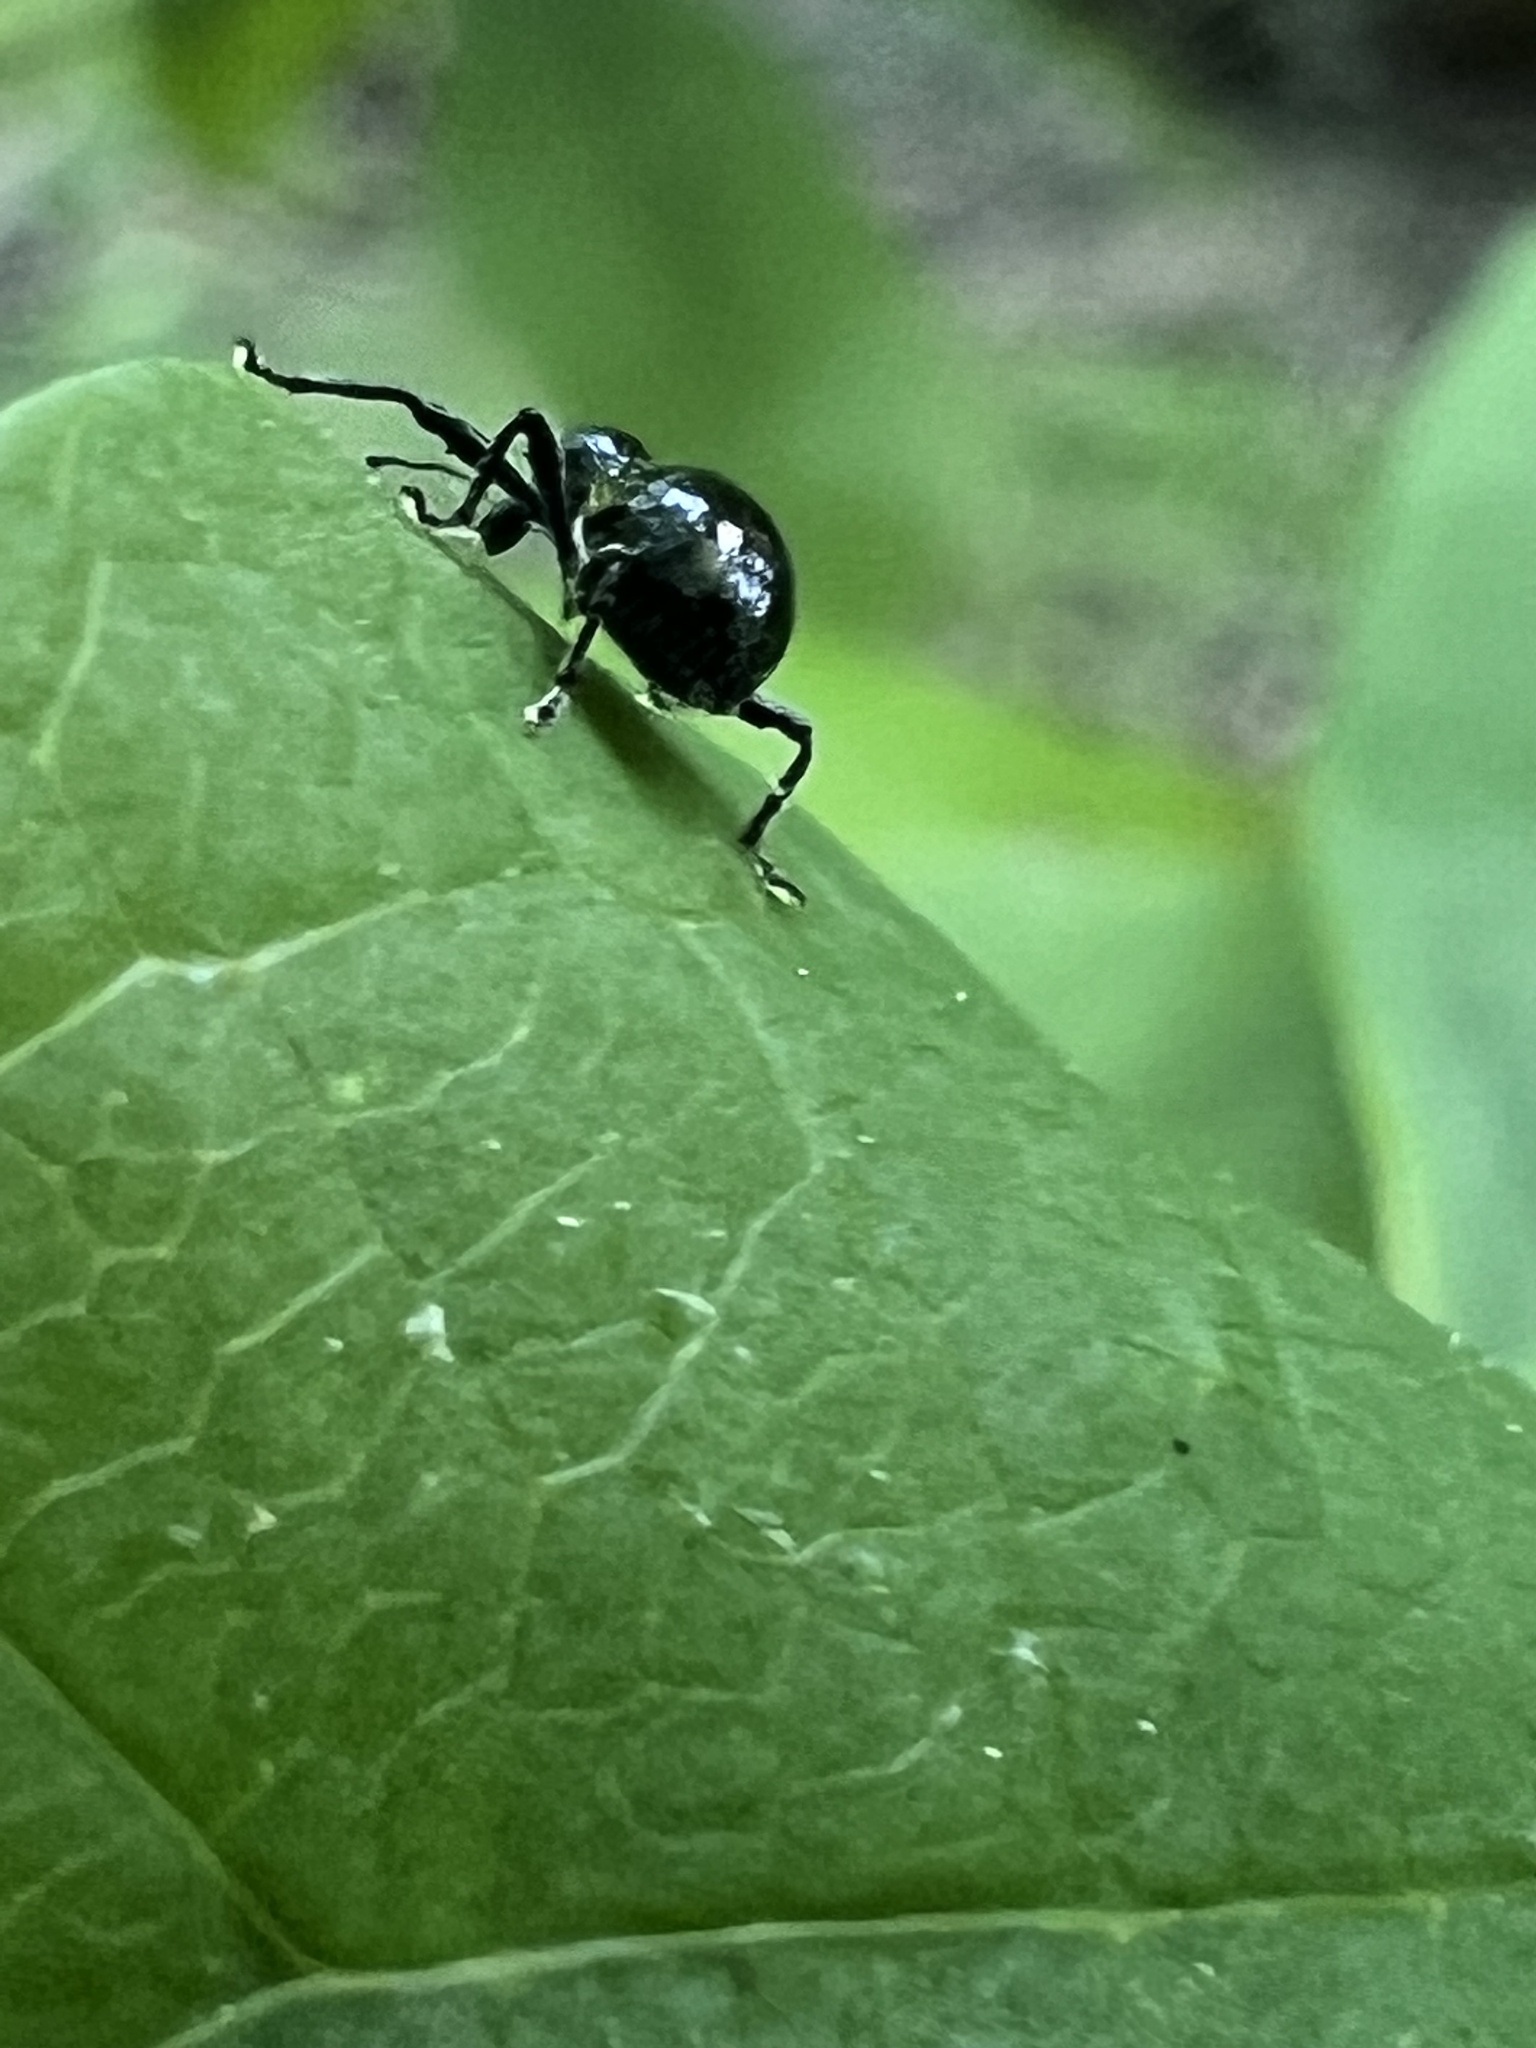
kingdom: Animalia
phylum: Arthropoda
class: Insecta
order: Coleoptera
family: Curculionidae
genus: Otidocephalus
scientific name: Otidocephalus chevrolatii
